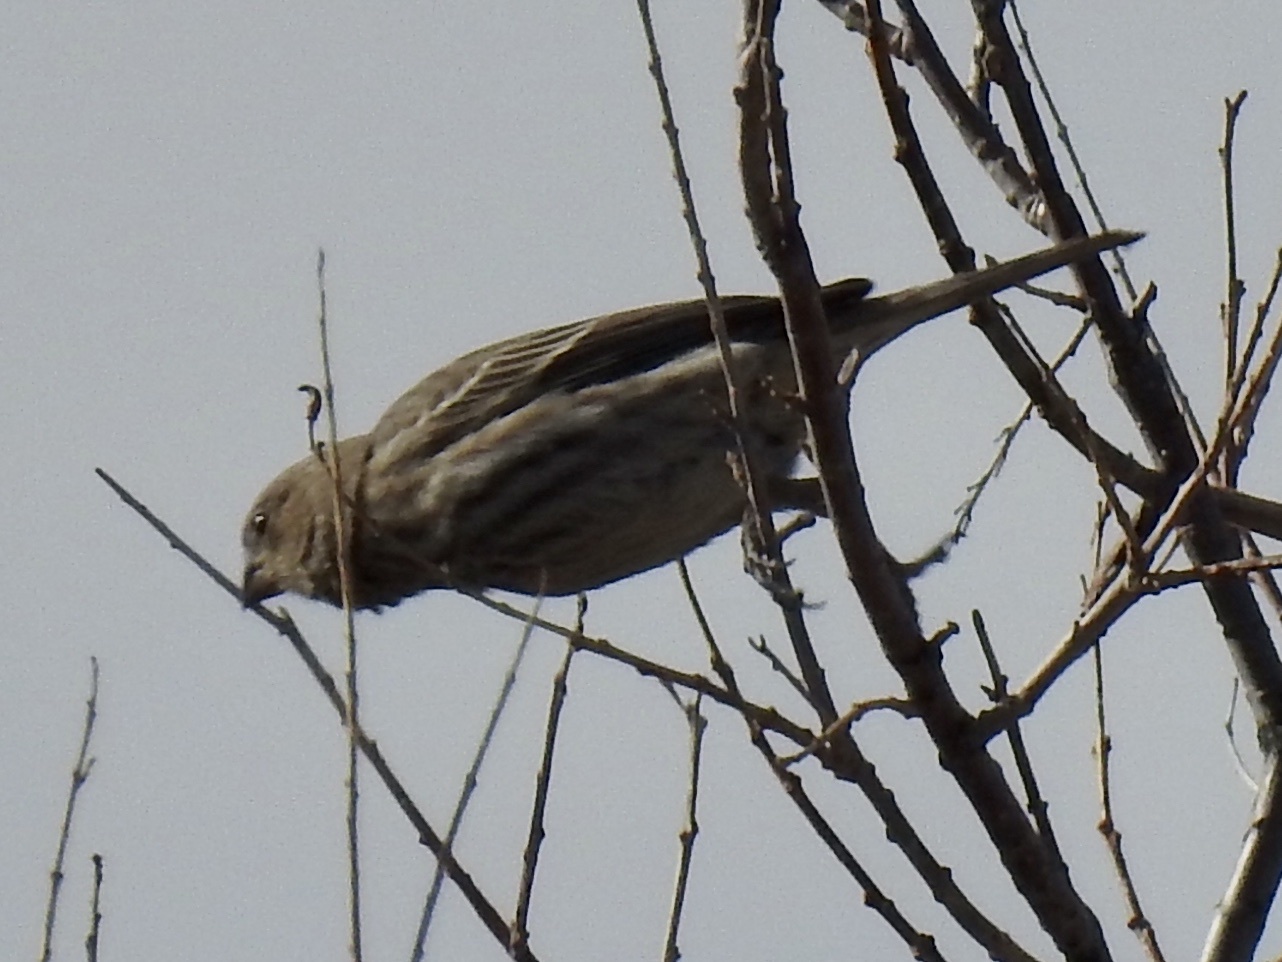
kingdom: Animalia
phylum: Chordata
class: Aves
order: Passeriformes
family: Fringillidae
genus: Haemorhous
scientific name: Haemorhous mexicanus
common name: House finch
